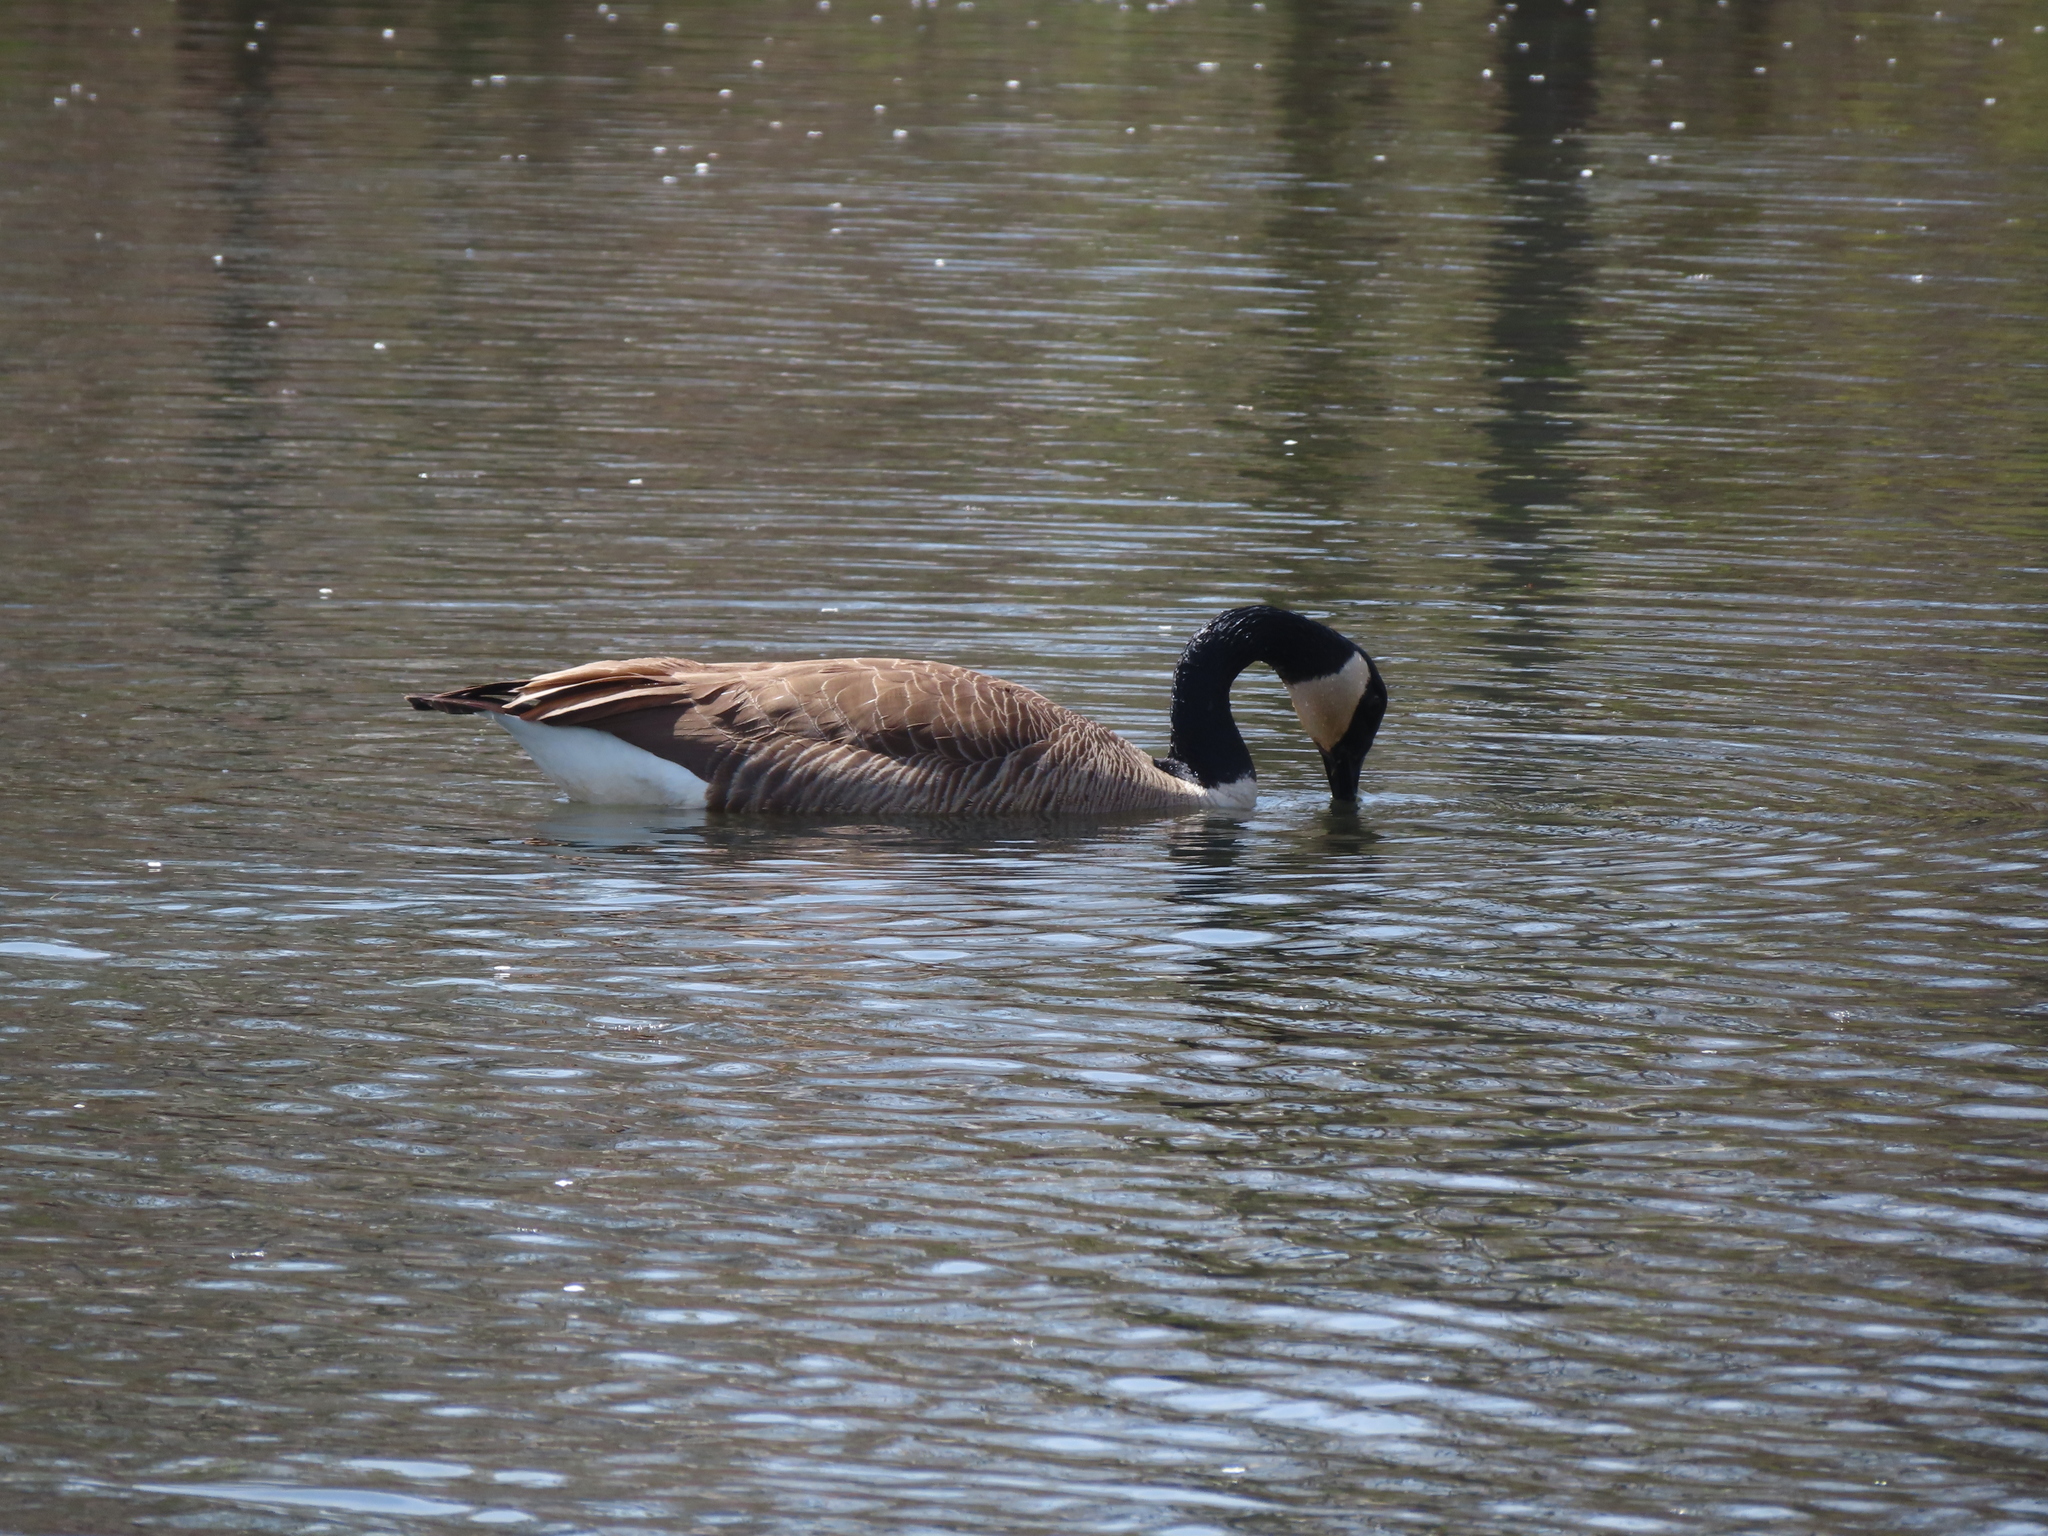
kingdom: Animalia
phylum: Chordata
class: Aves
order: Anseriformes
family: Anatidae
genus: Branta
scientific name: Branta canadensis
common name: Canada goose
